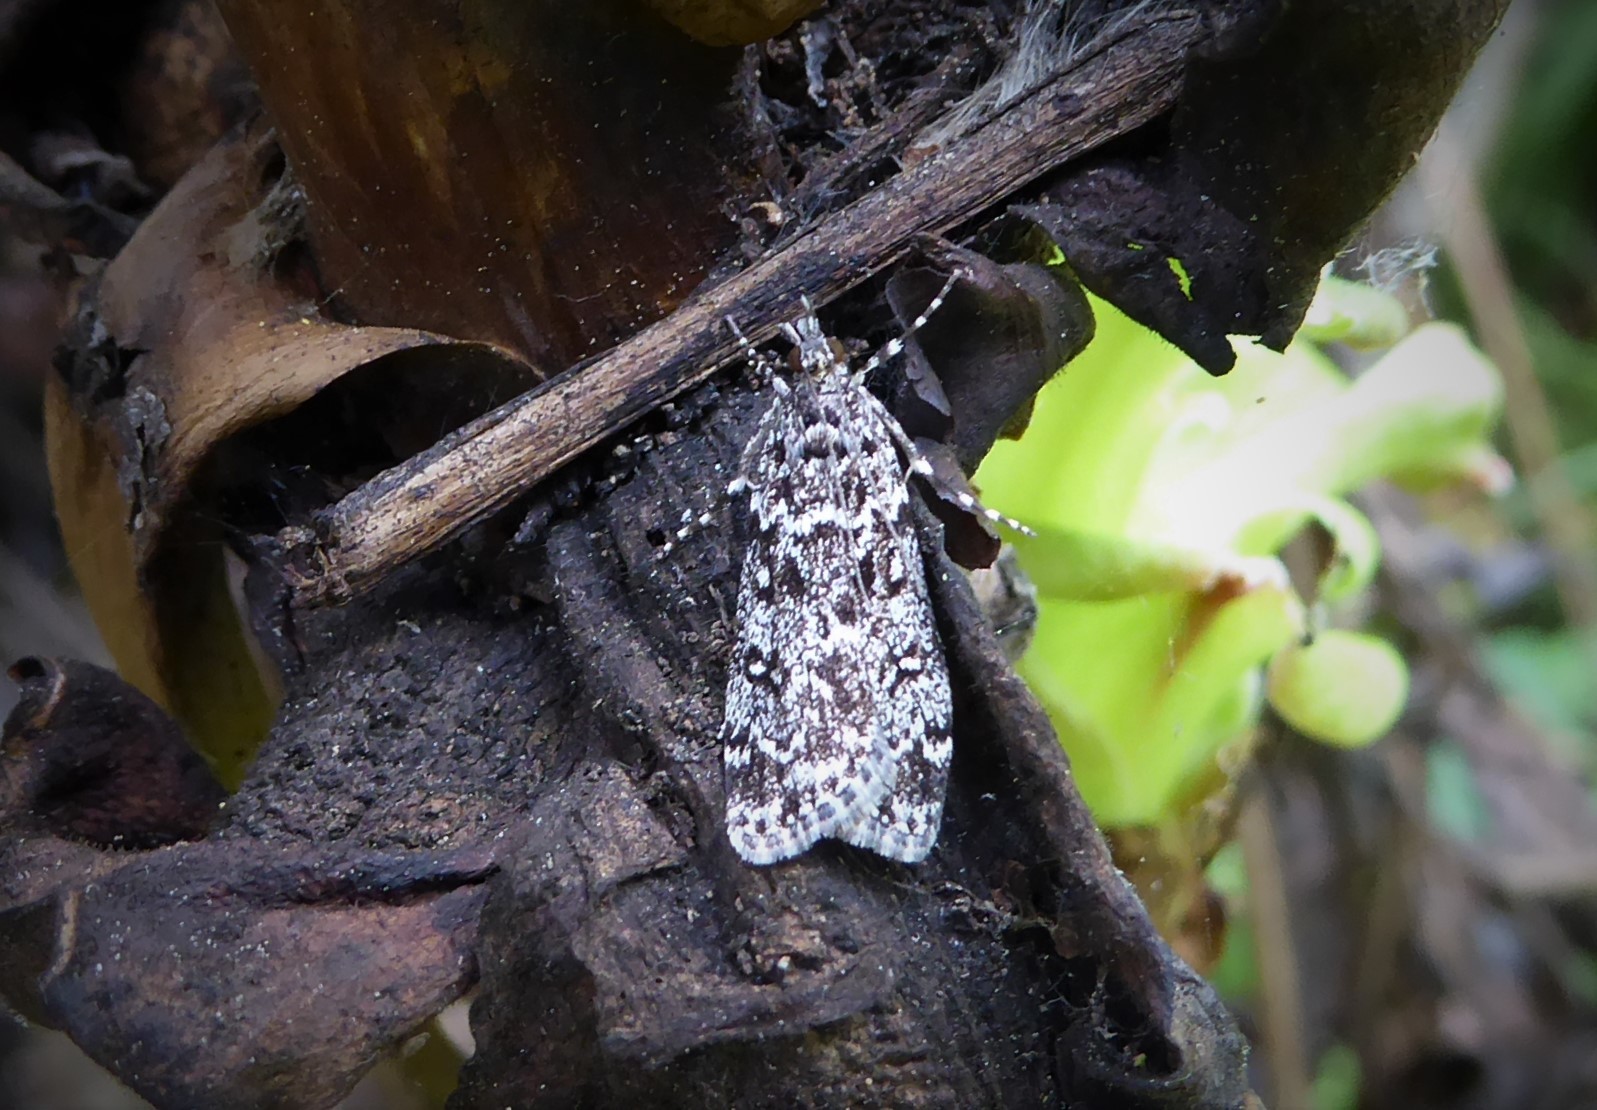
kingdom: Animalia
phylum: Arthropoda
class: Insecta
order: Lepidoptera
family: Crambidae
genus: Eudonia
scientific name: Eudonia philerga
